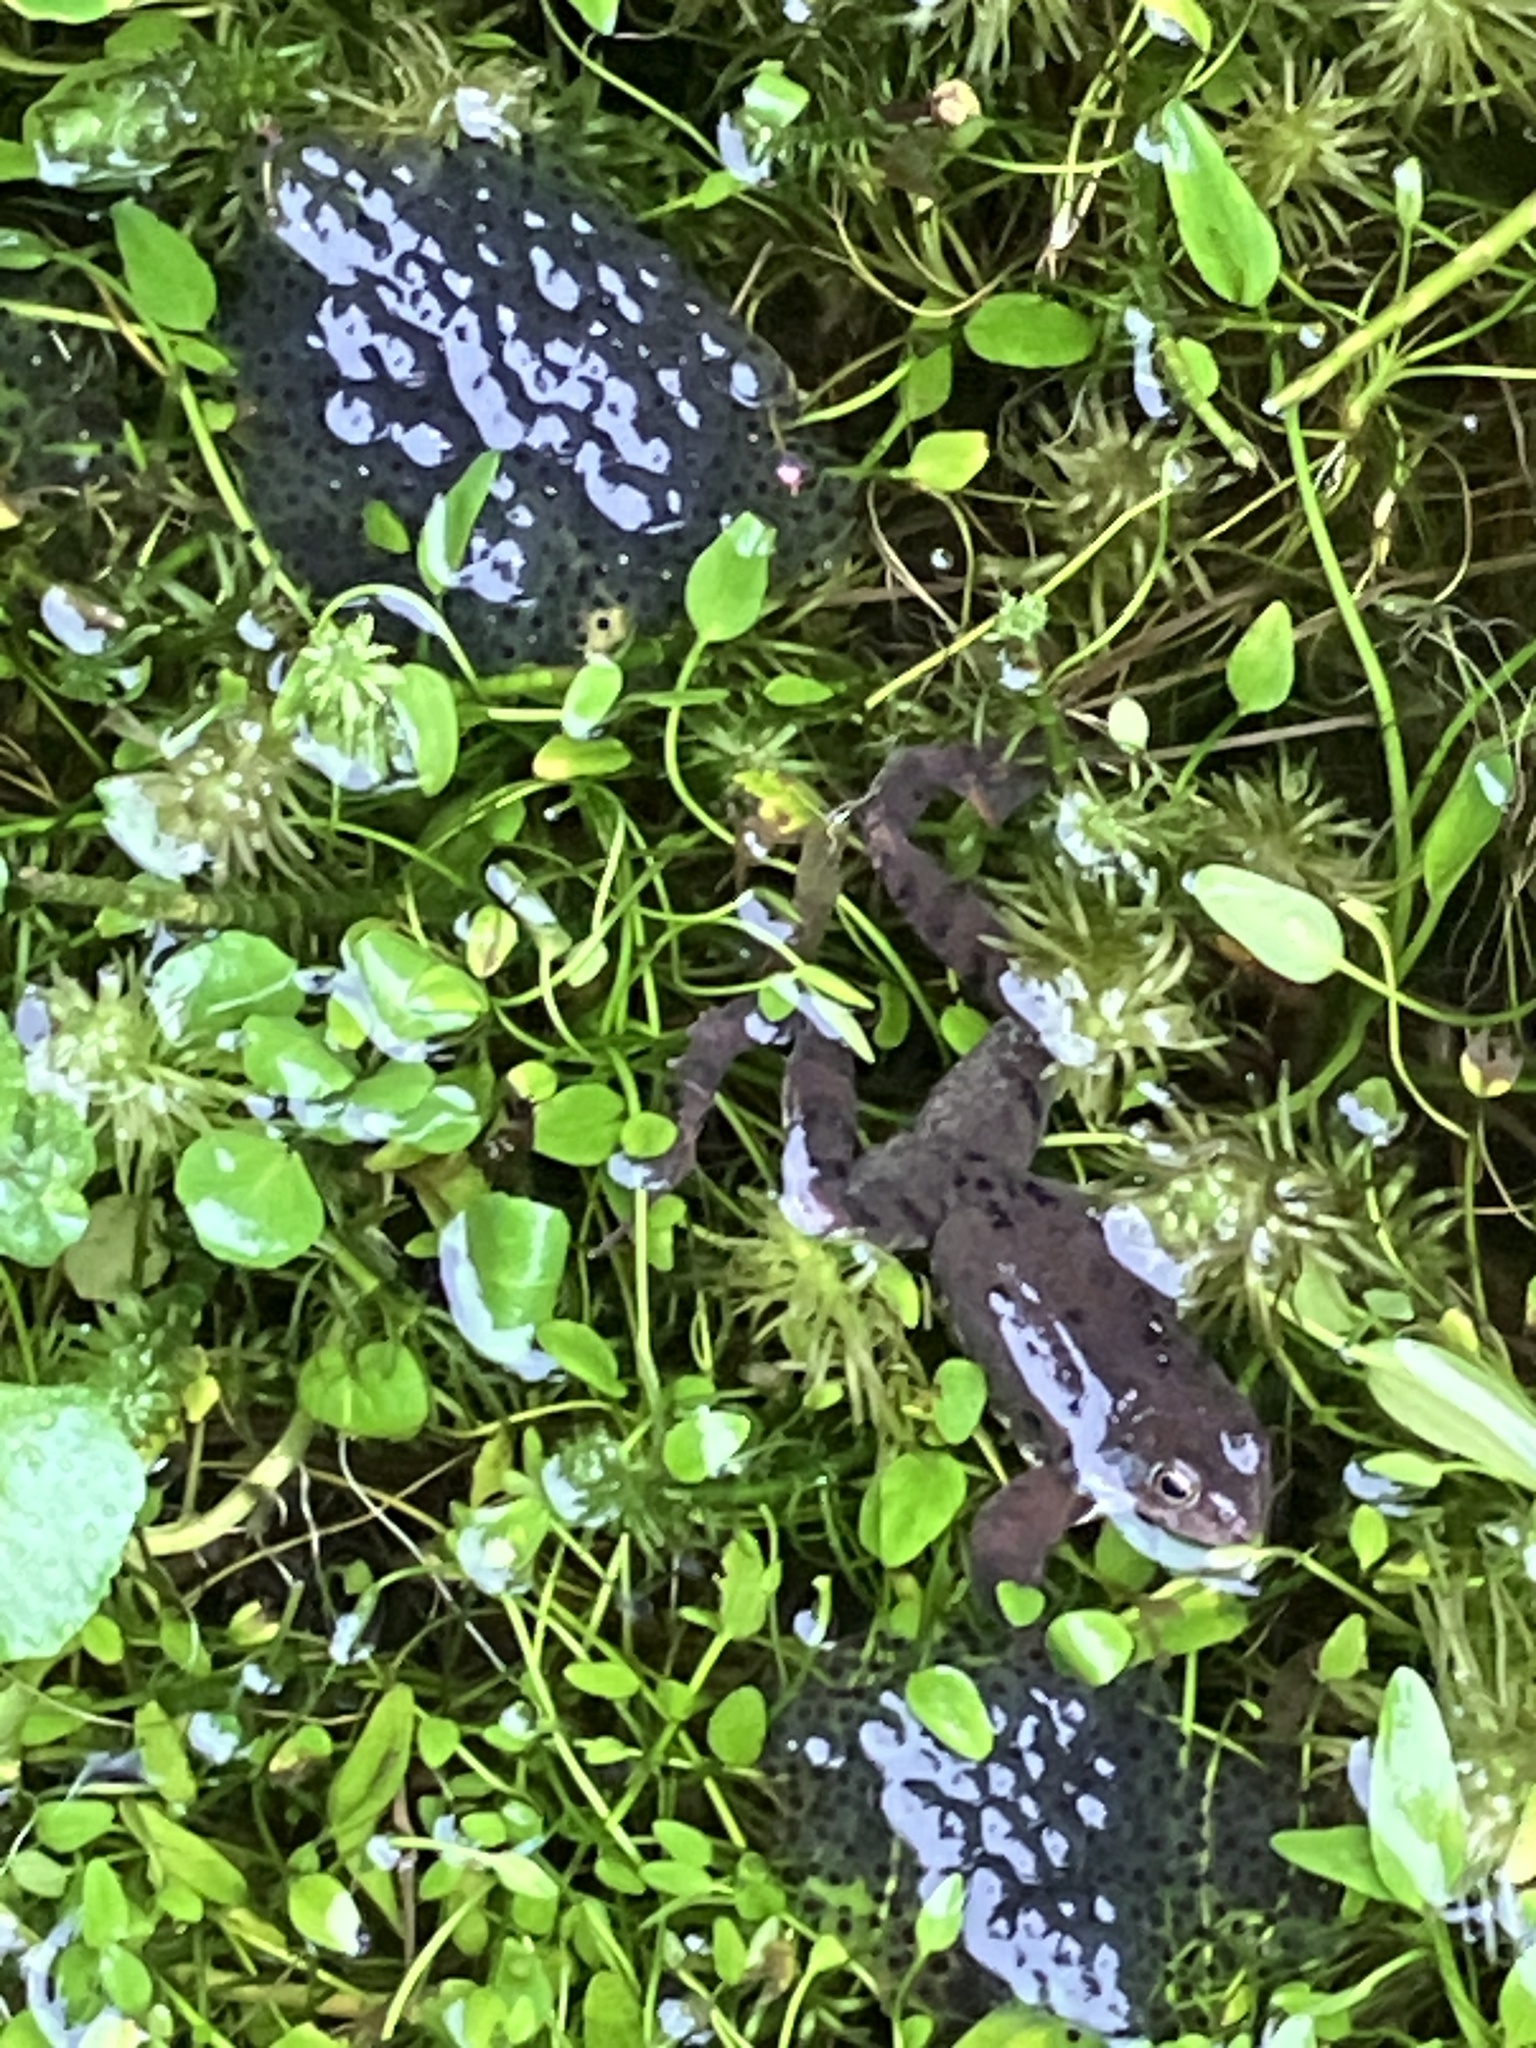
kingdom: Animalia
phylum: Chordata
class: Amphibia
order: Anura
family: Ranidae
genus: Rana
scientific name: Rana temporaria
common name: Common frog
